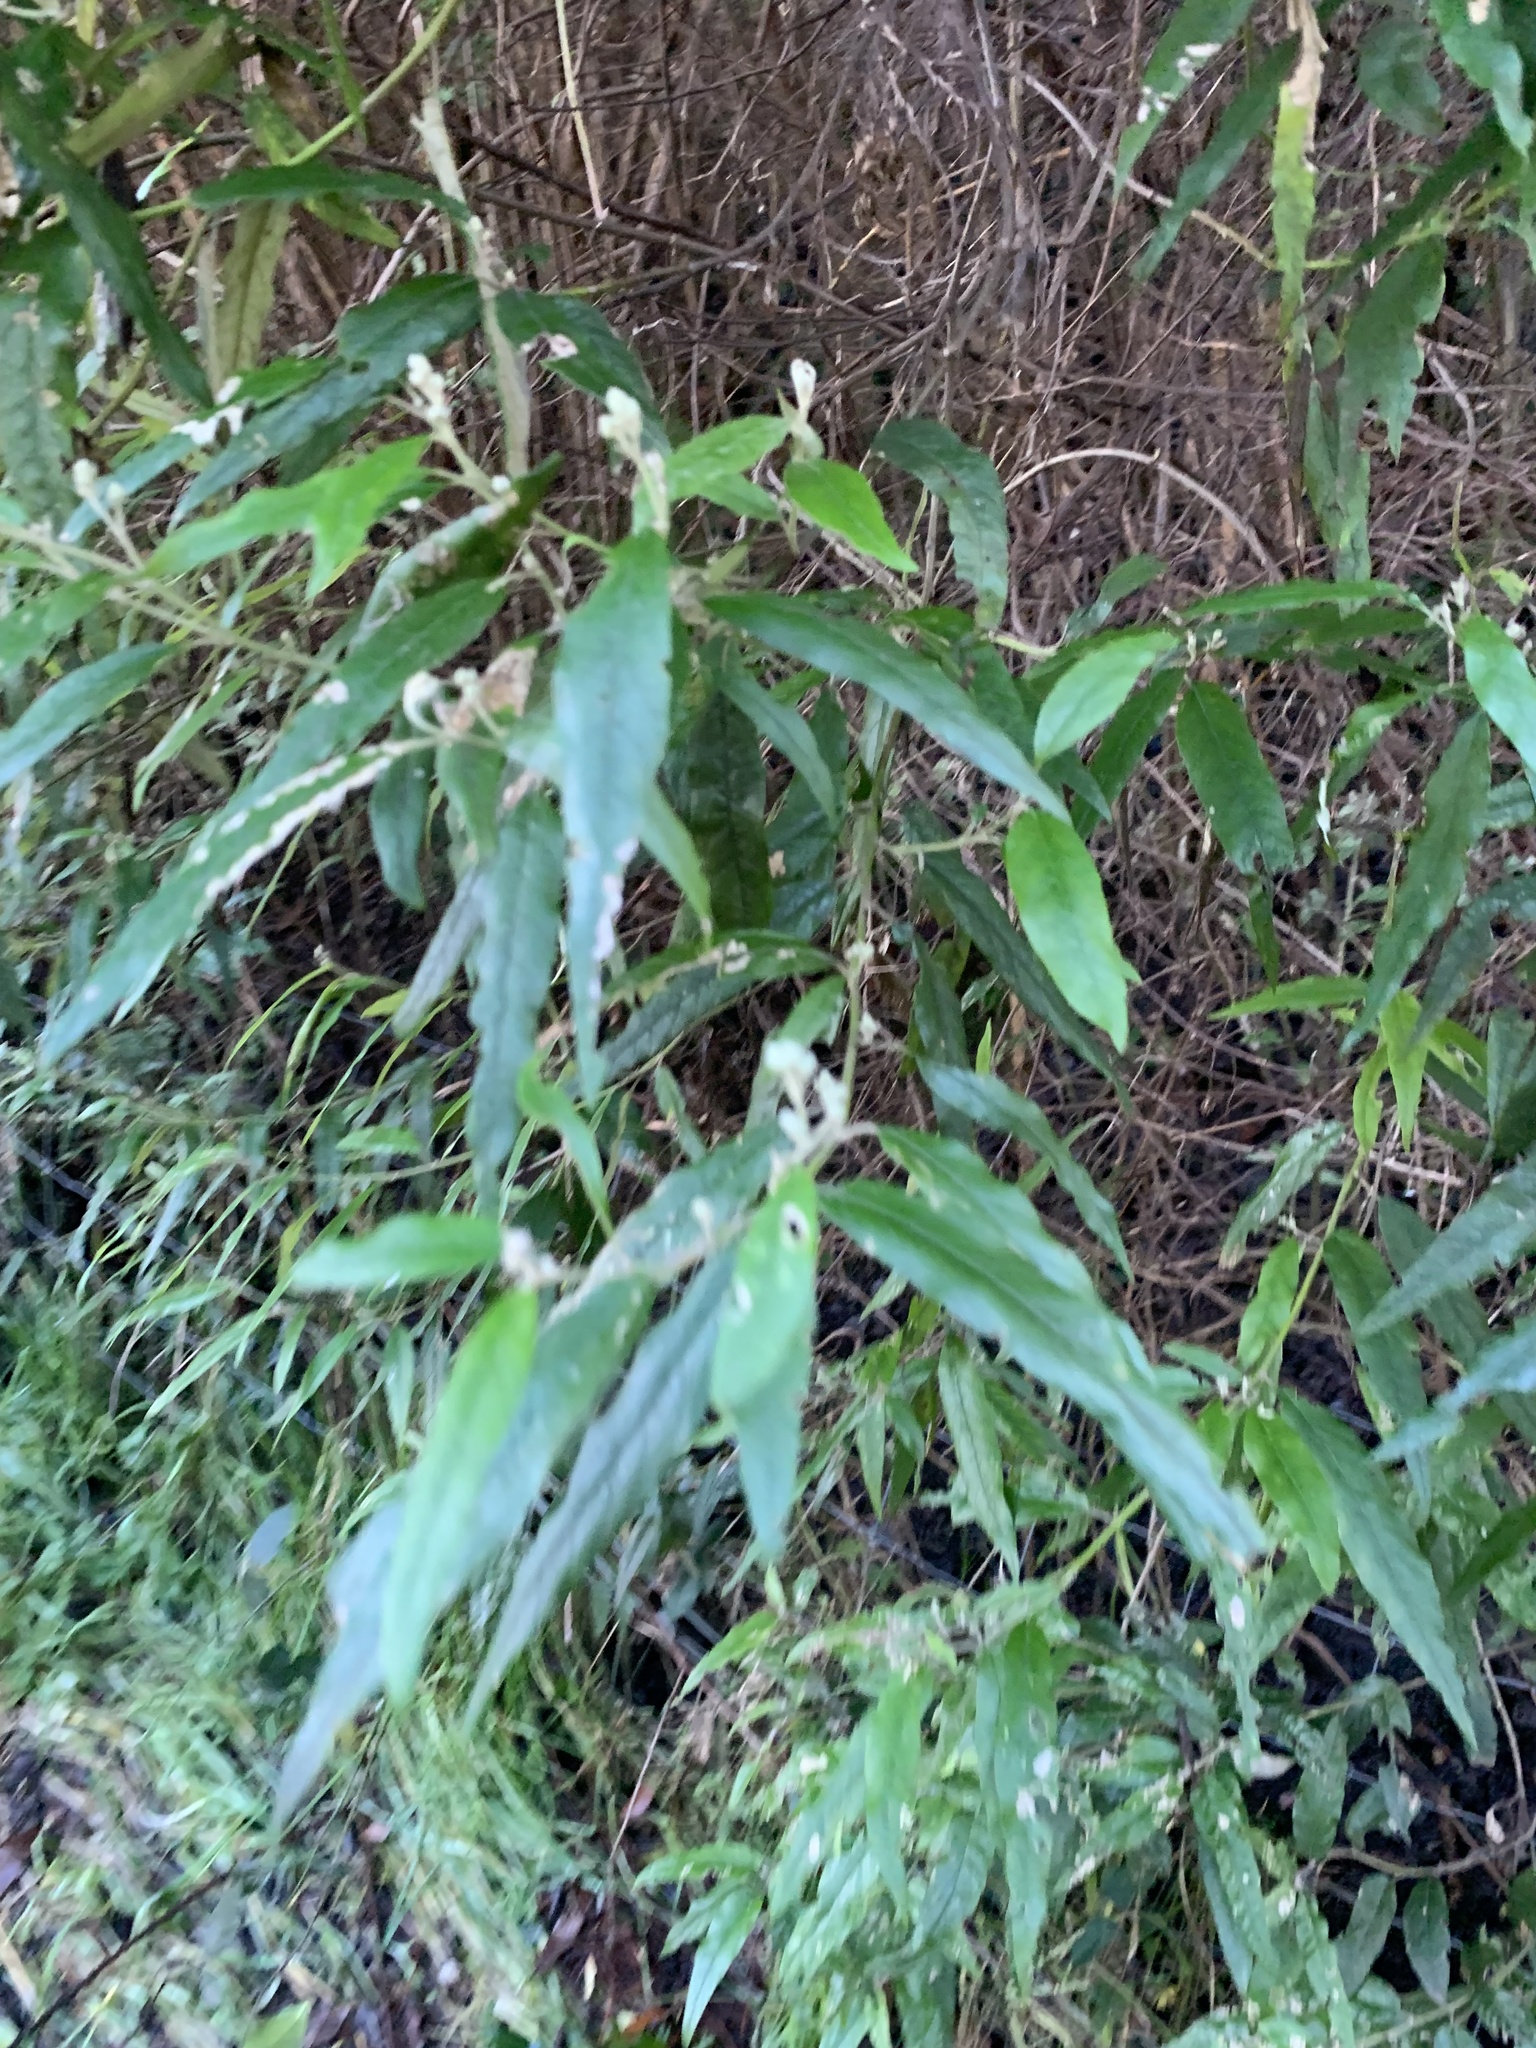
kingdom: Plantae
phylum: Tracheophyta
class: Magnoliopsida
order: Asterales
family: Asteraceae
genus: Olearia
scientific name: Olearia lirata
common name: Dusty daisybush
